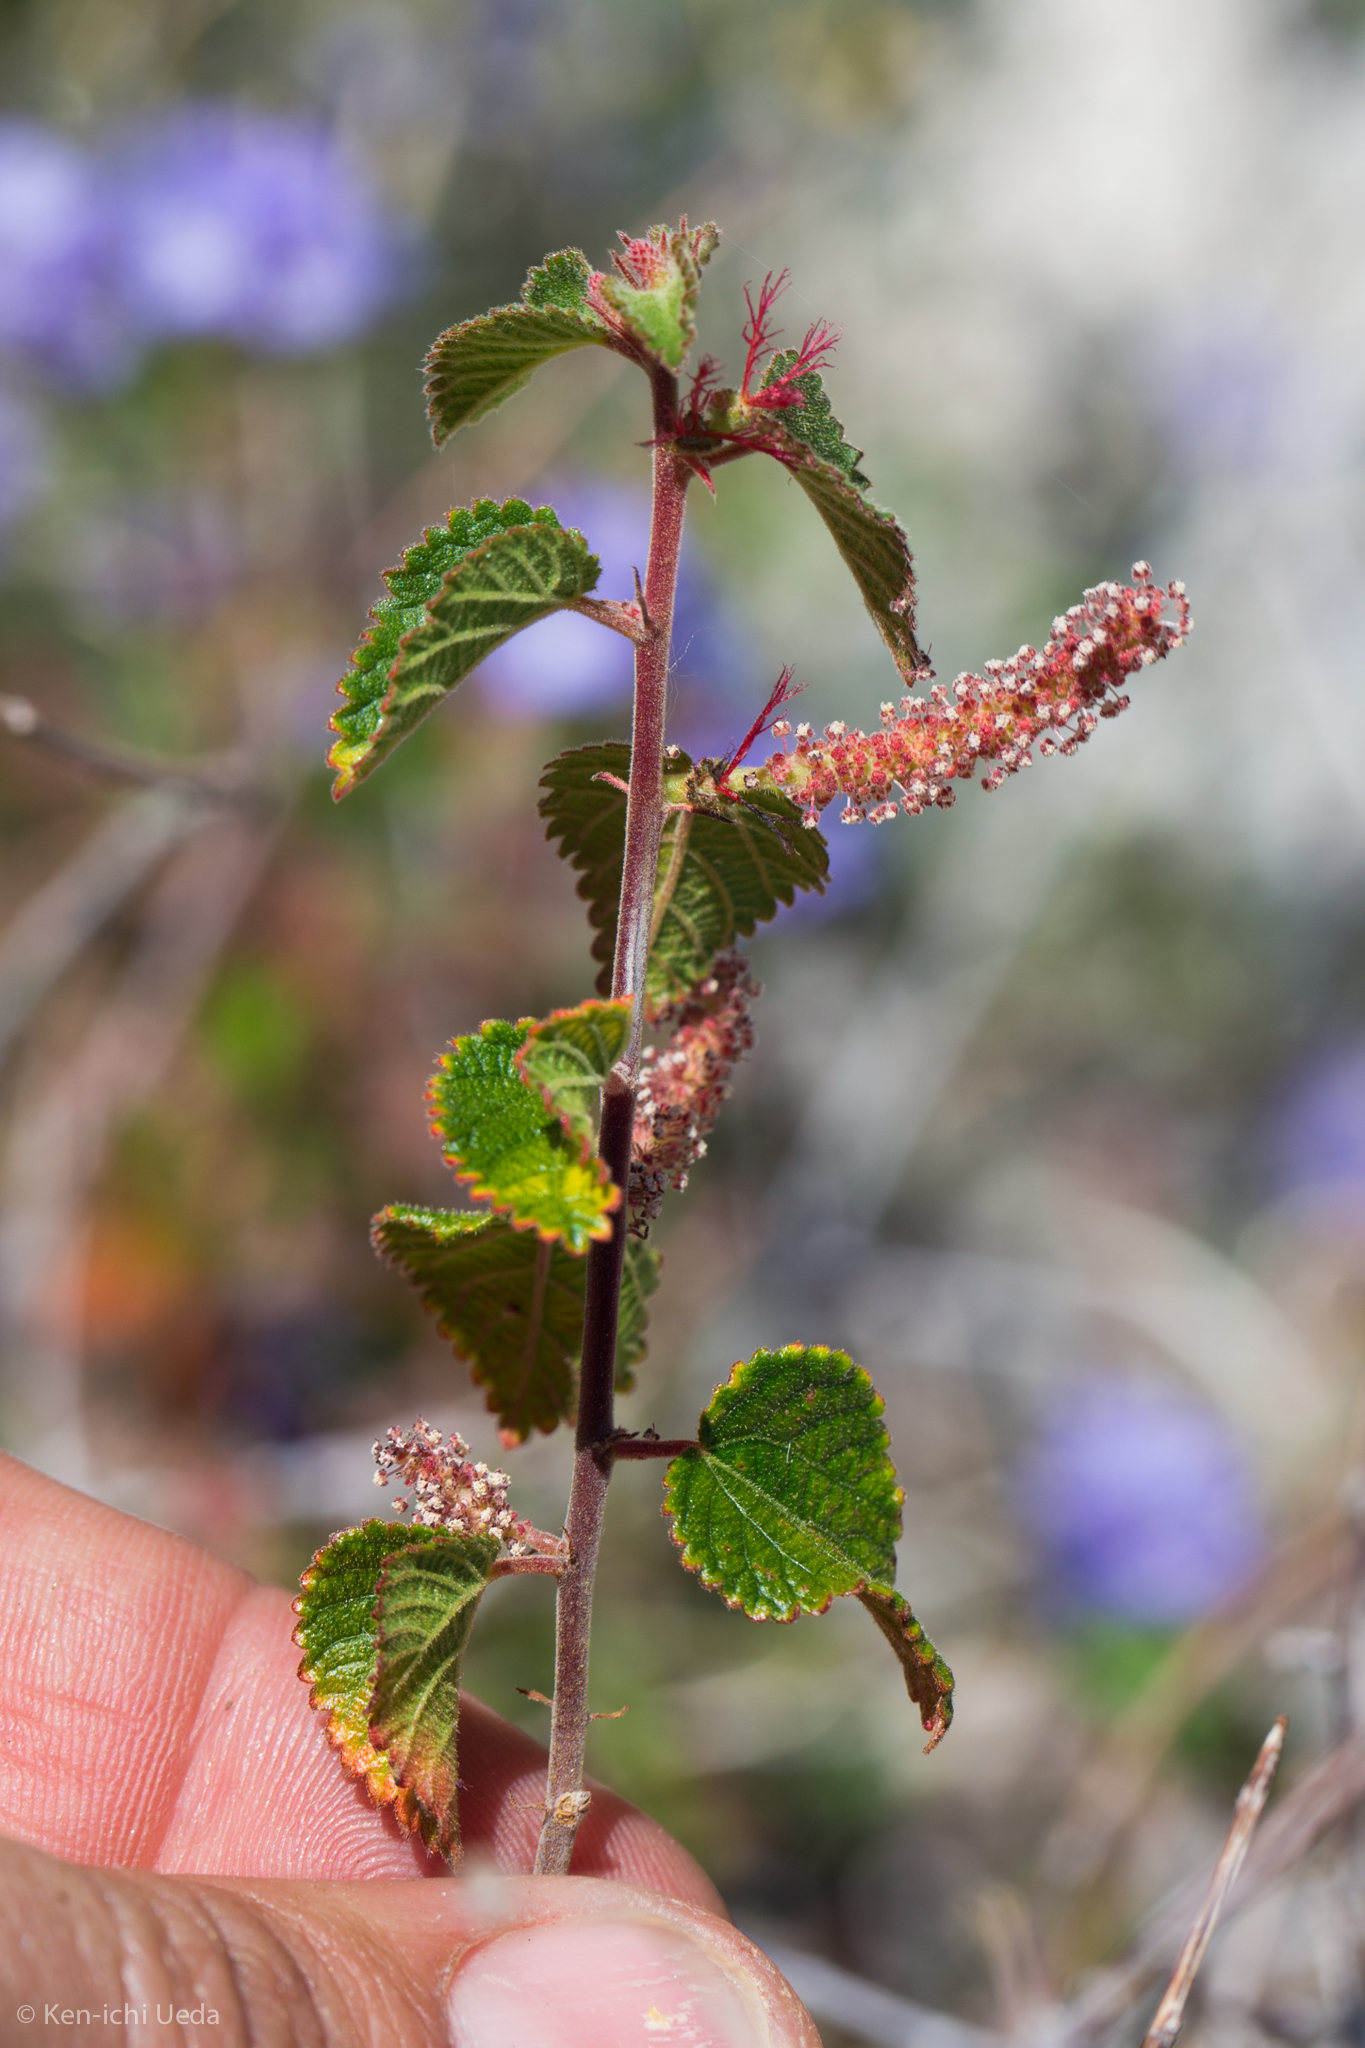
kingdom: Plantae
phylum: Tracheophyta
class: Magnoliopsida
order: Malpighiales
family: Euphorbiaceae
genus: Acalypha
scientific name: Acalypha californica
